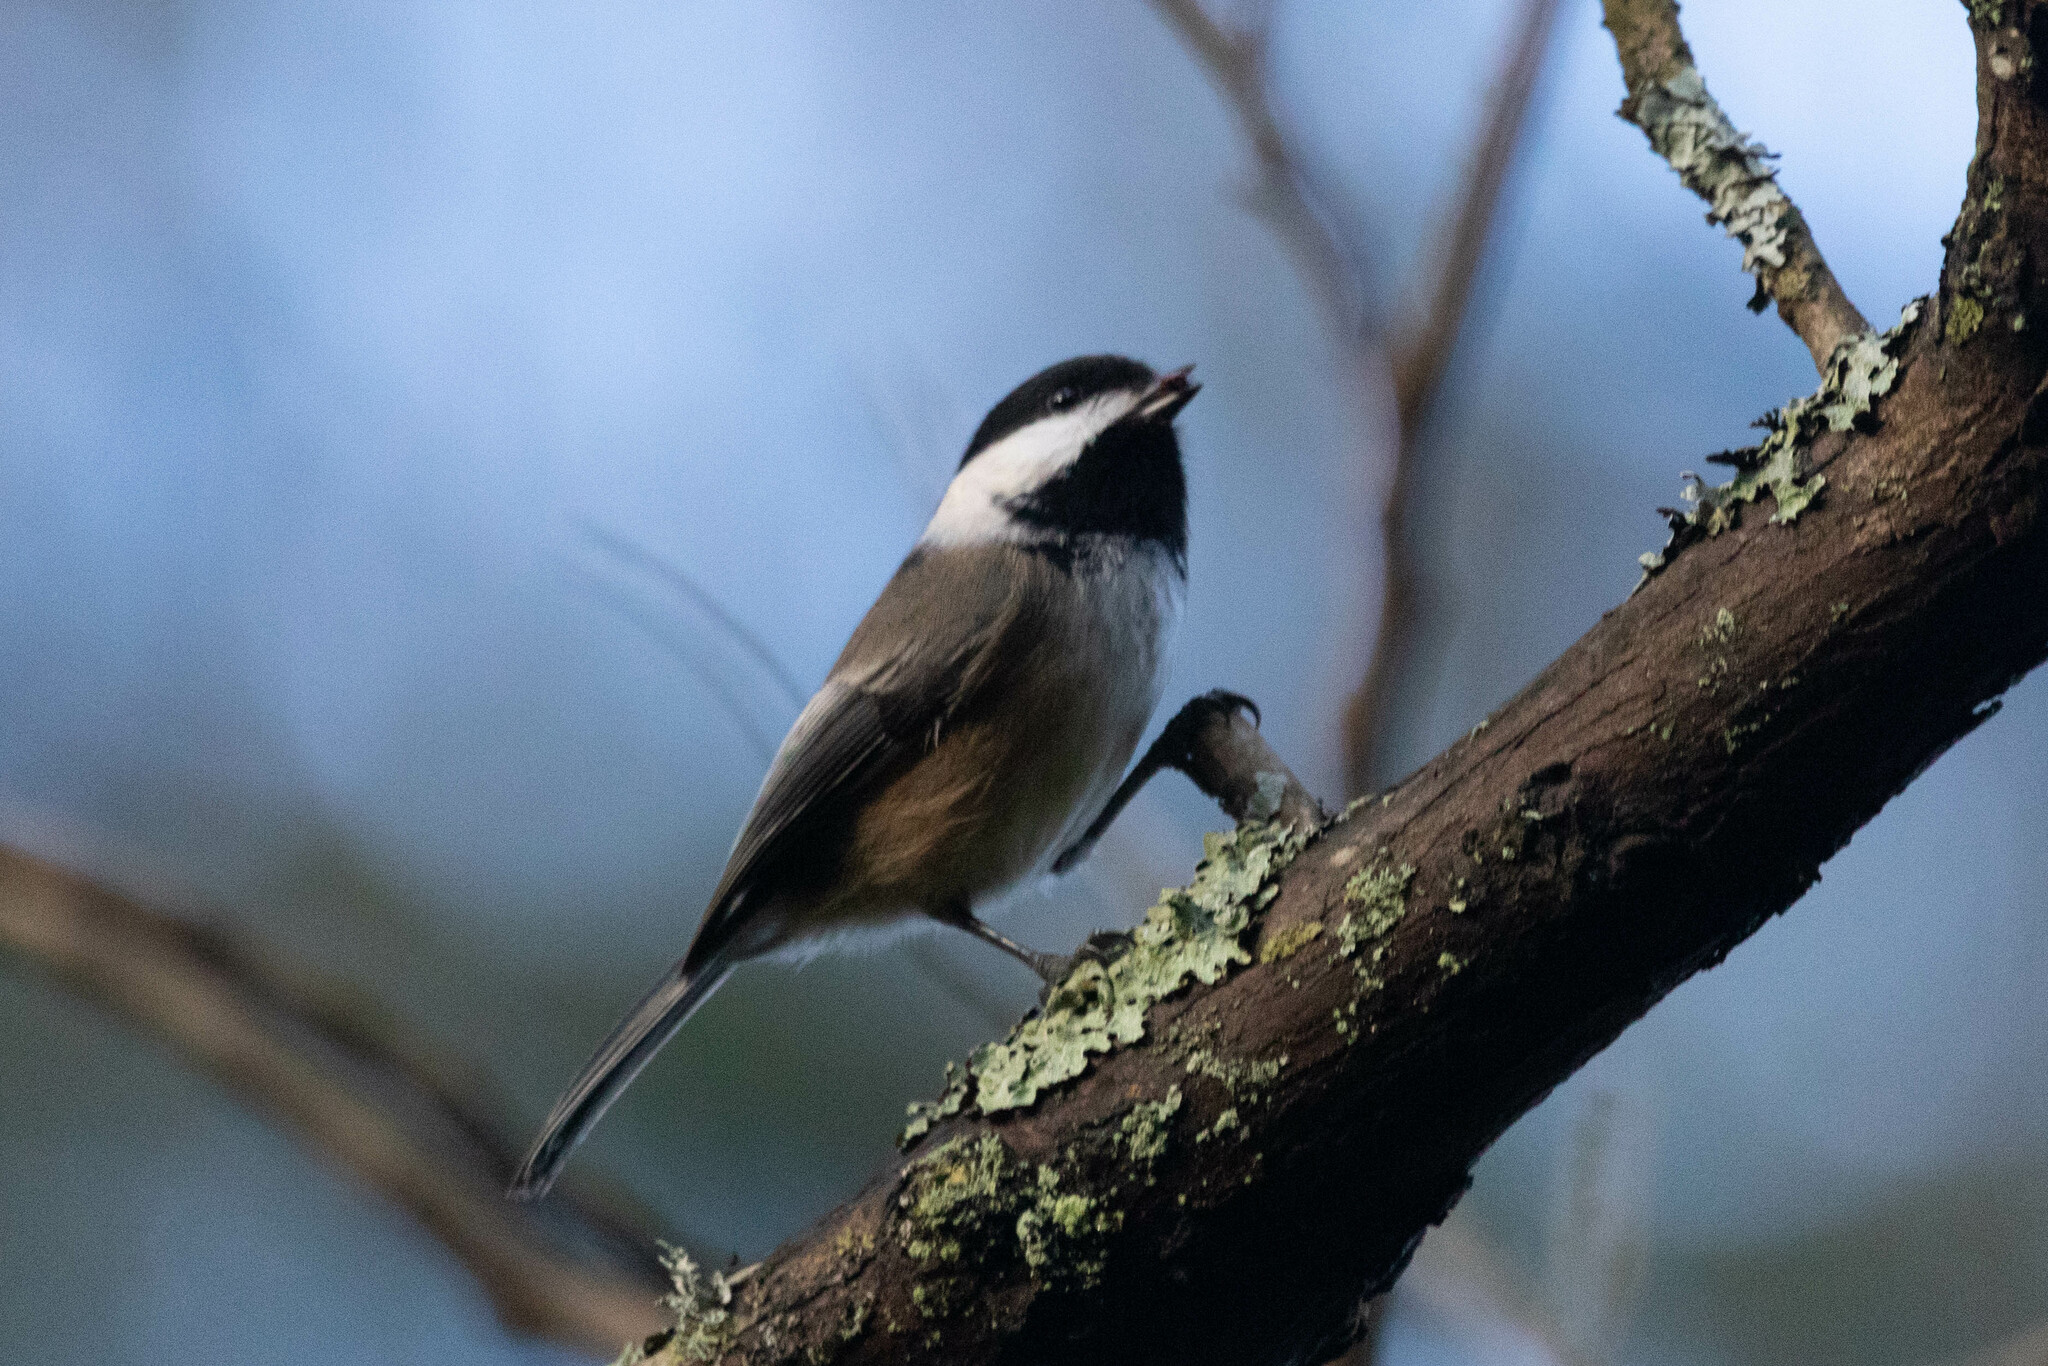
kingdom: Animalia
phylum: Chordata
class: Aves
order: Passeriformes
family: Paridae
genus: Poecile
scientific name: Poecile atricapillus
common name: Black-capped chickadee
